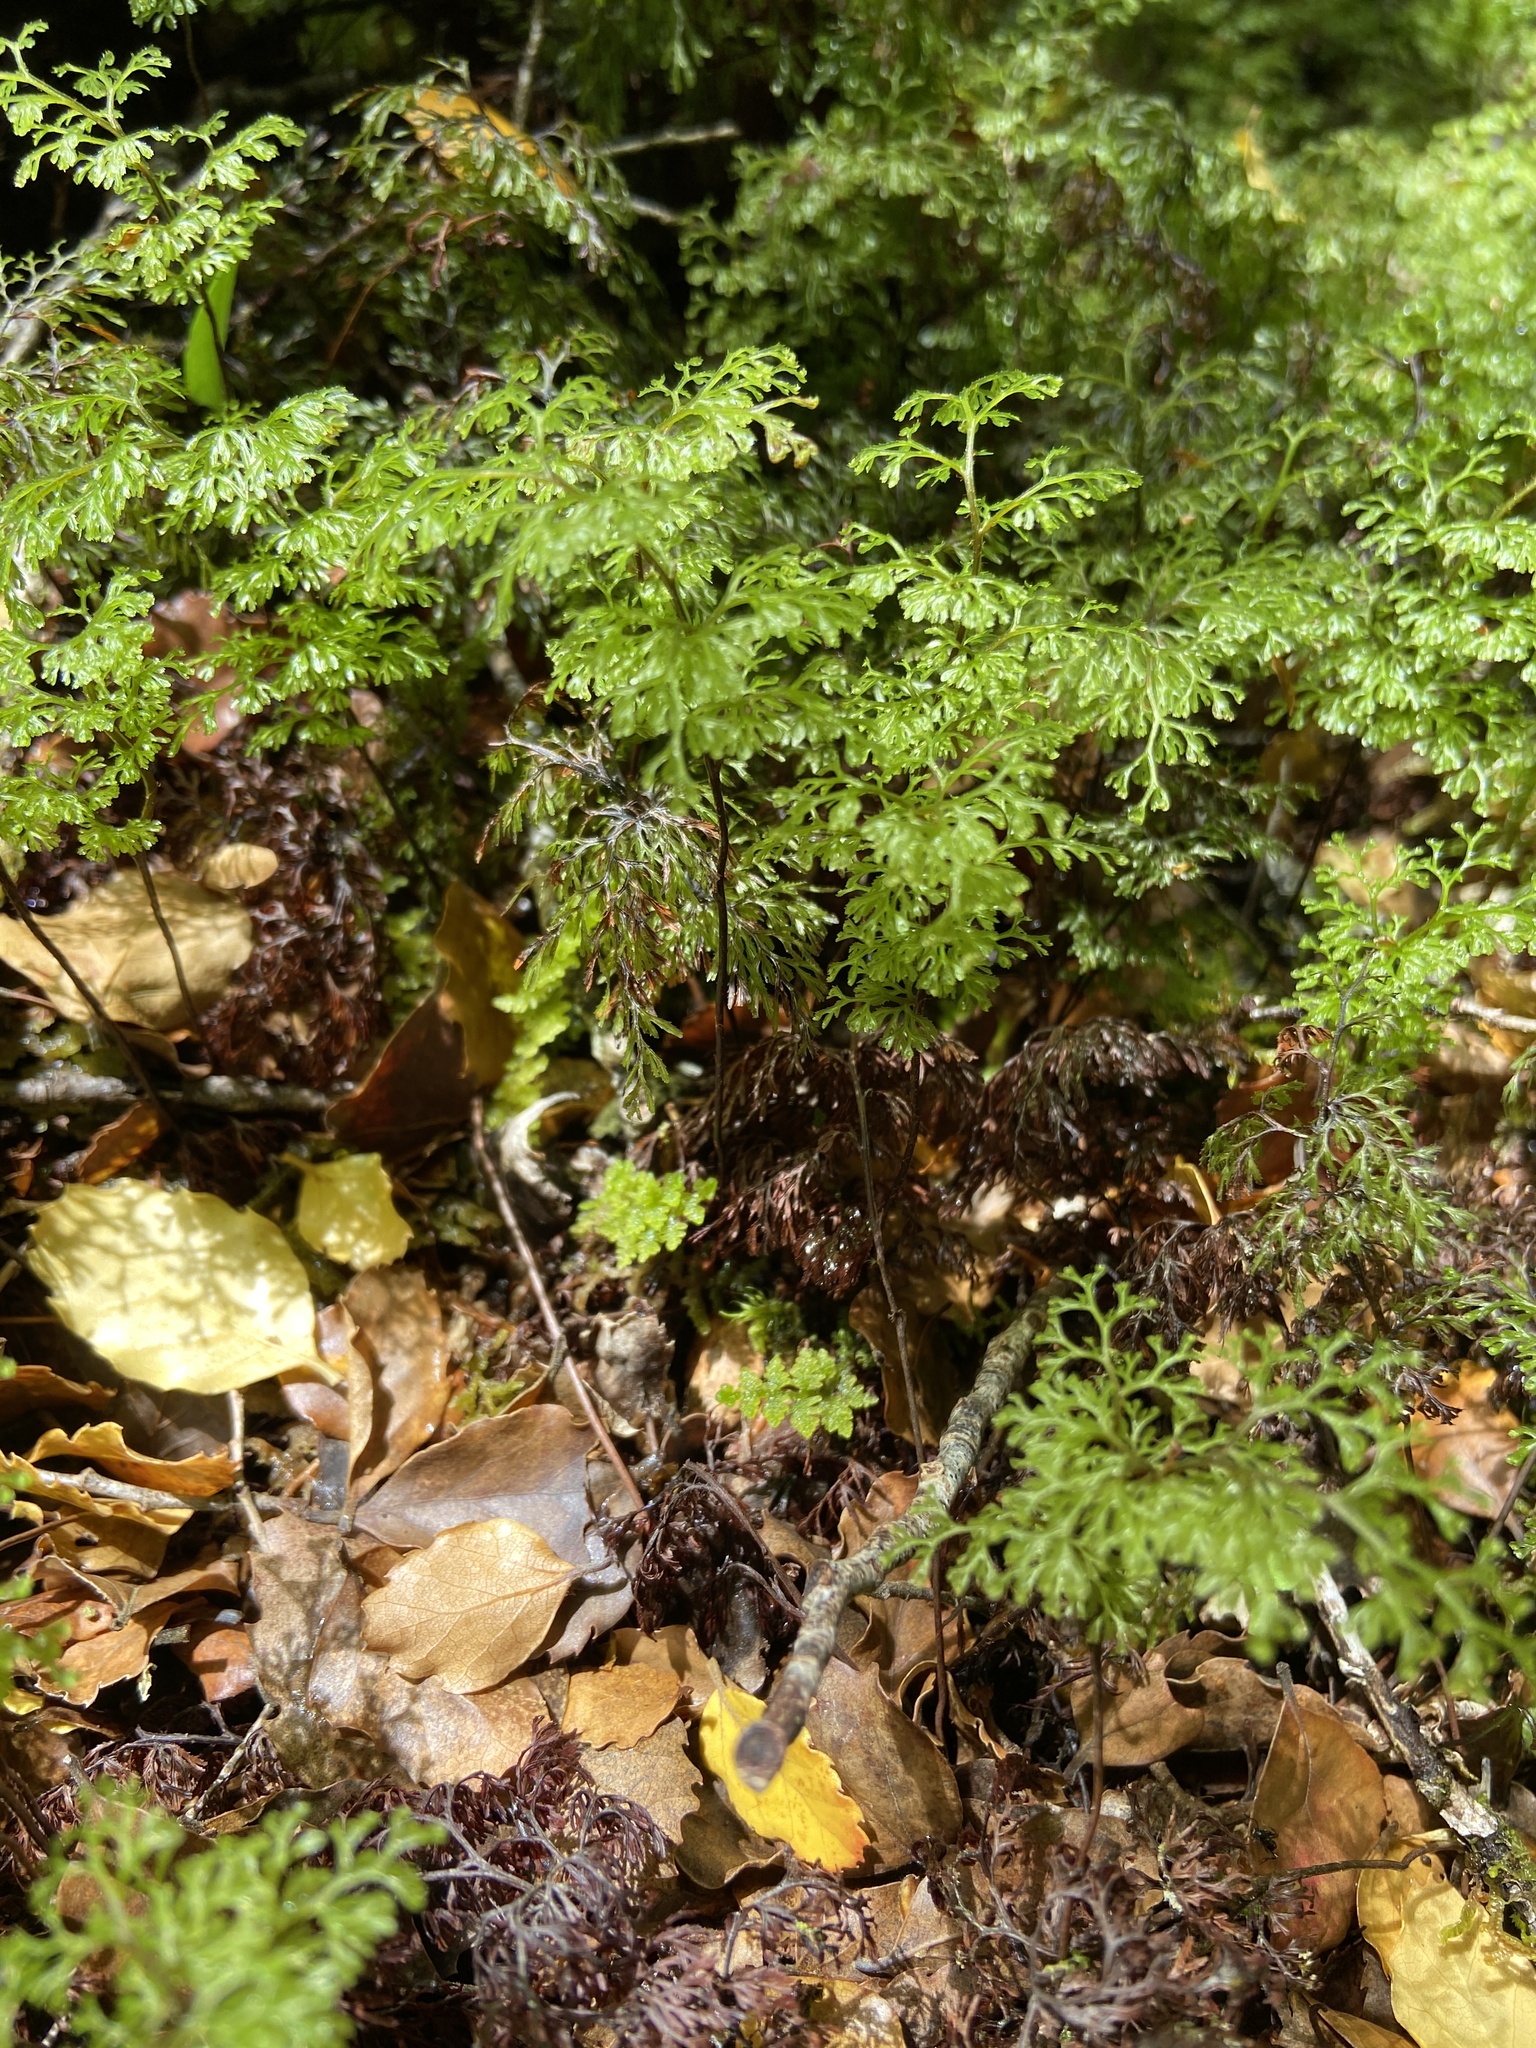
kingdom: Plantae
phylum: Tracheophyta
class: Polypodiopsida
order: Hymenophyllales
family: Hymenophyllaceae
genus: Hymenophyllum
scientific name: Hymenophyllum multifidum
